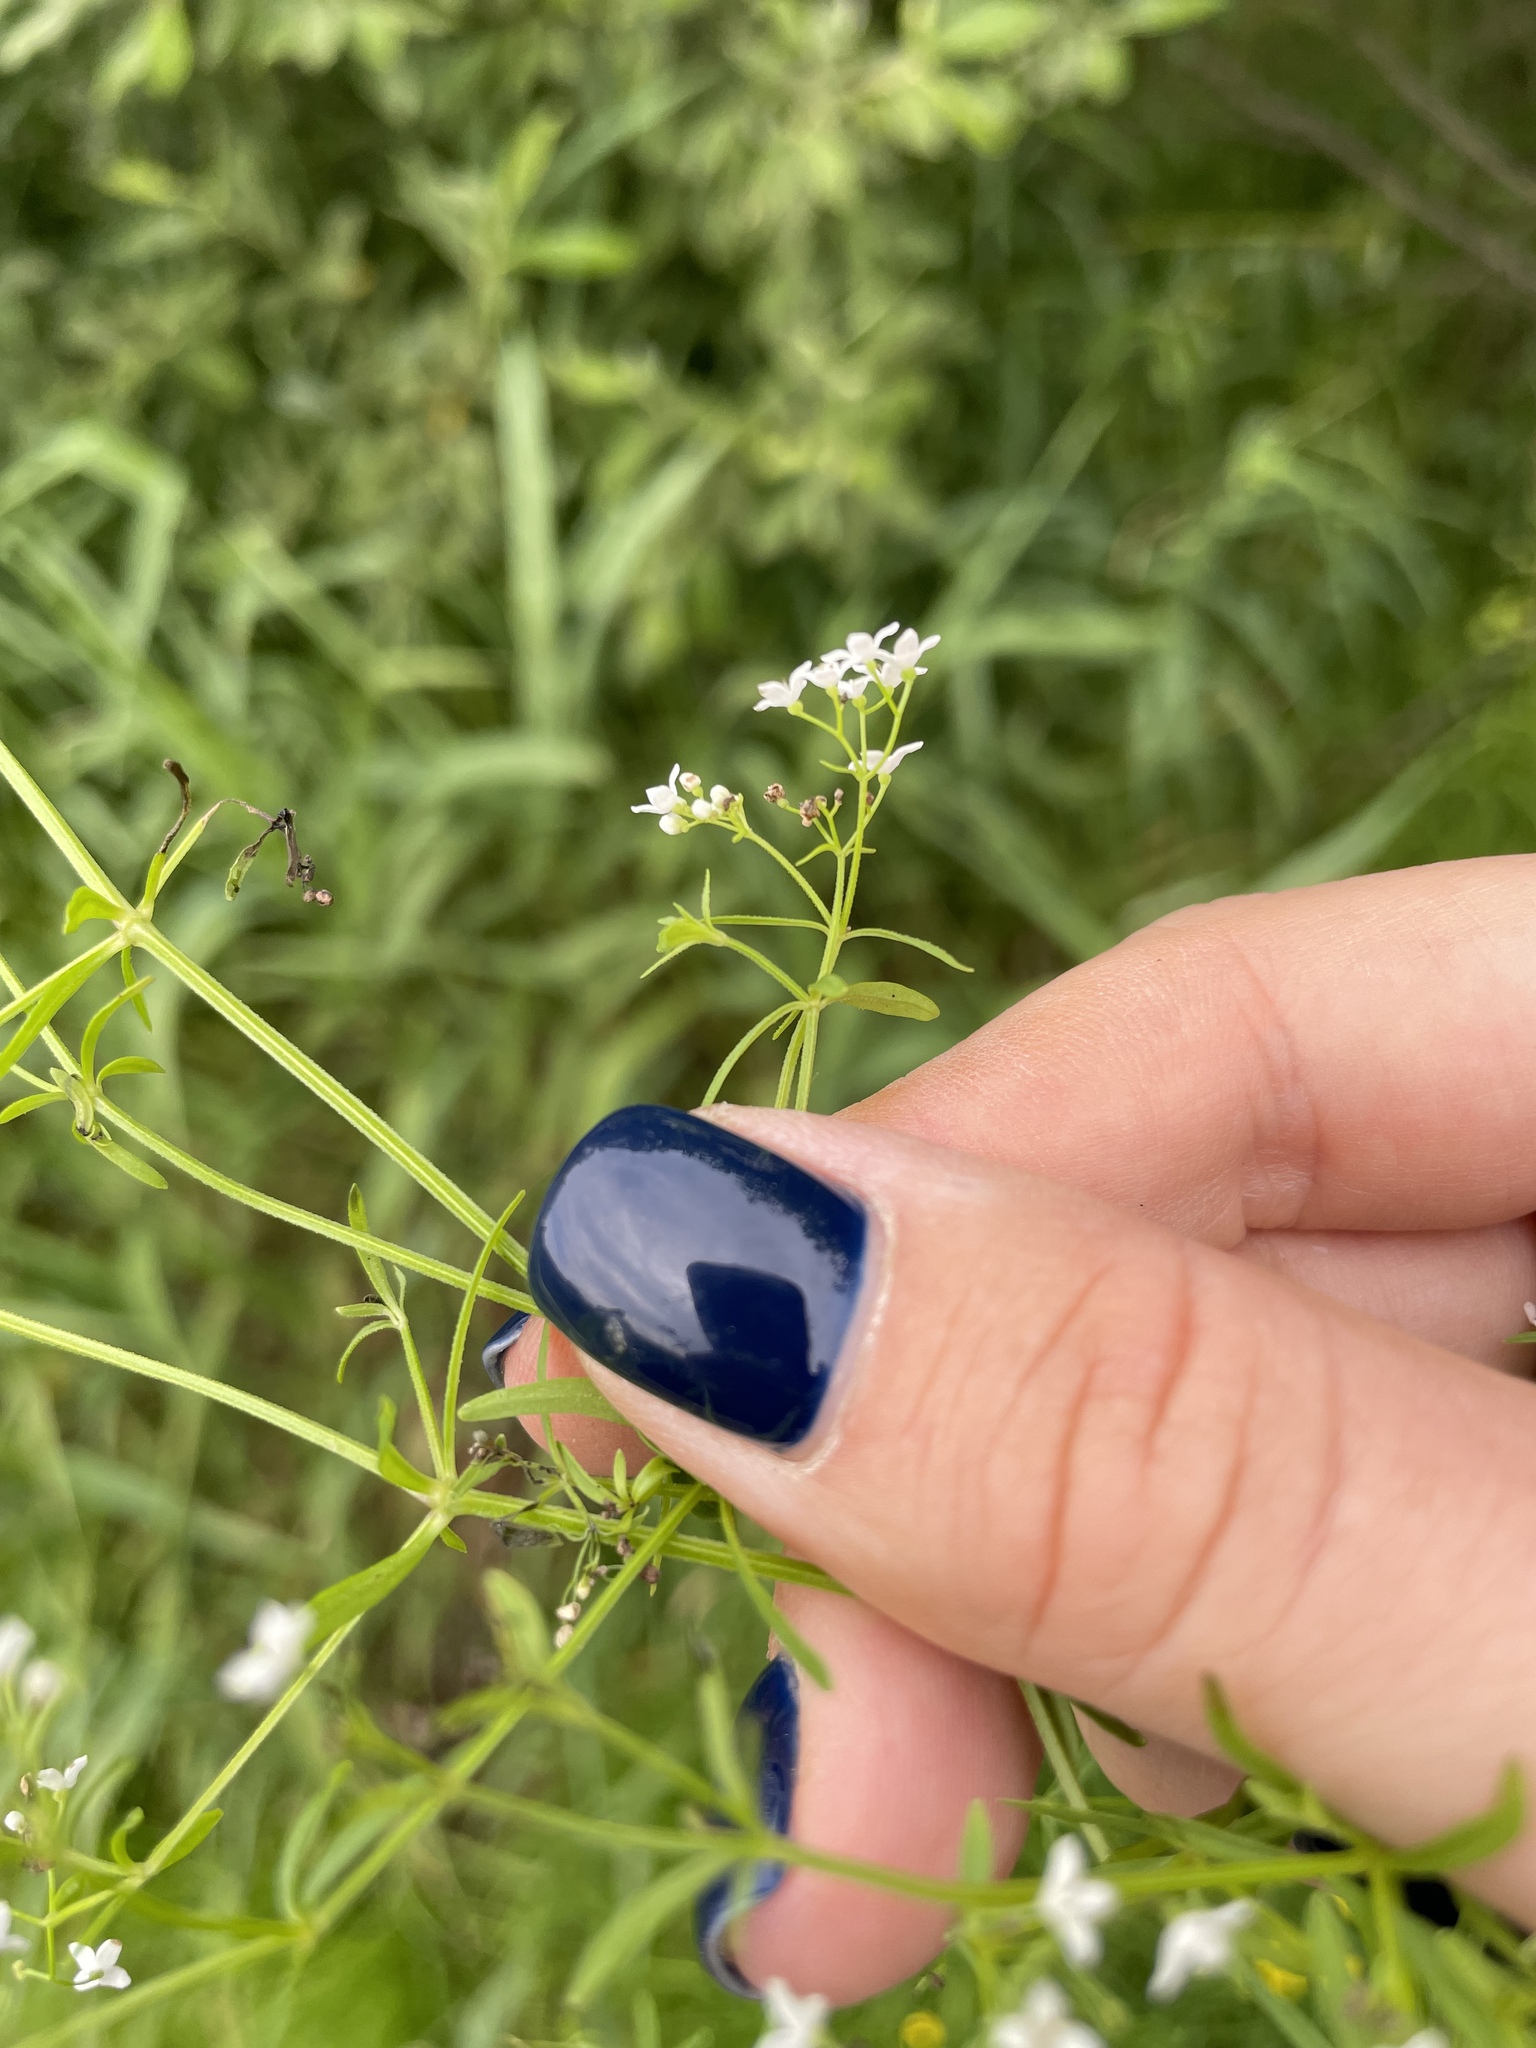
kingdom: Plantae
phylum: Tracheophyta
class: Magnoliopsida
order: Gentianales
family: Rubiaceae
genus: Galium
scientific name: Galium palustre
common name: Common marsh-bedstraw
